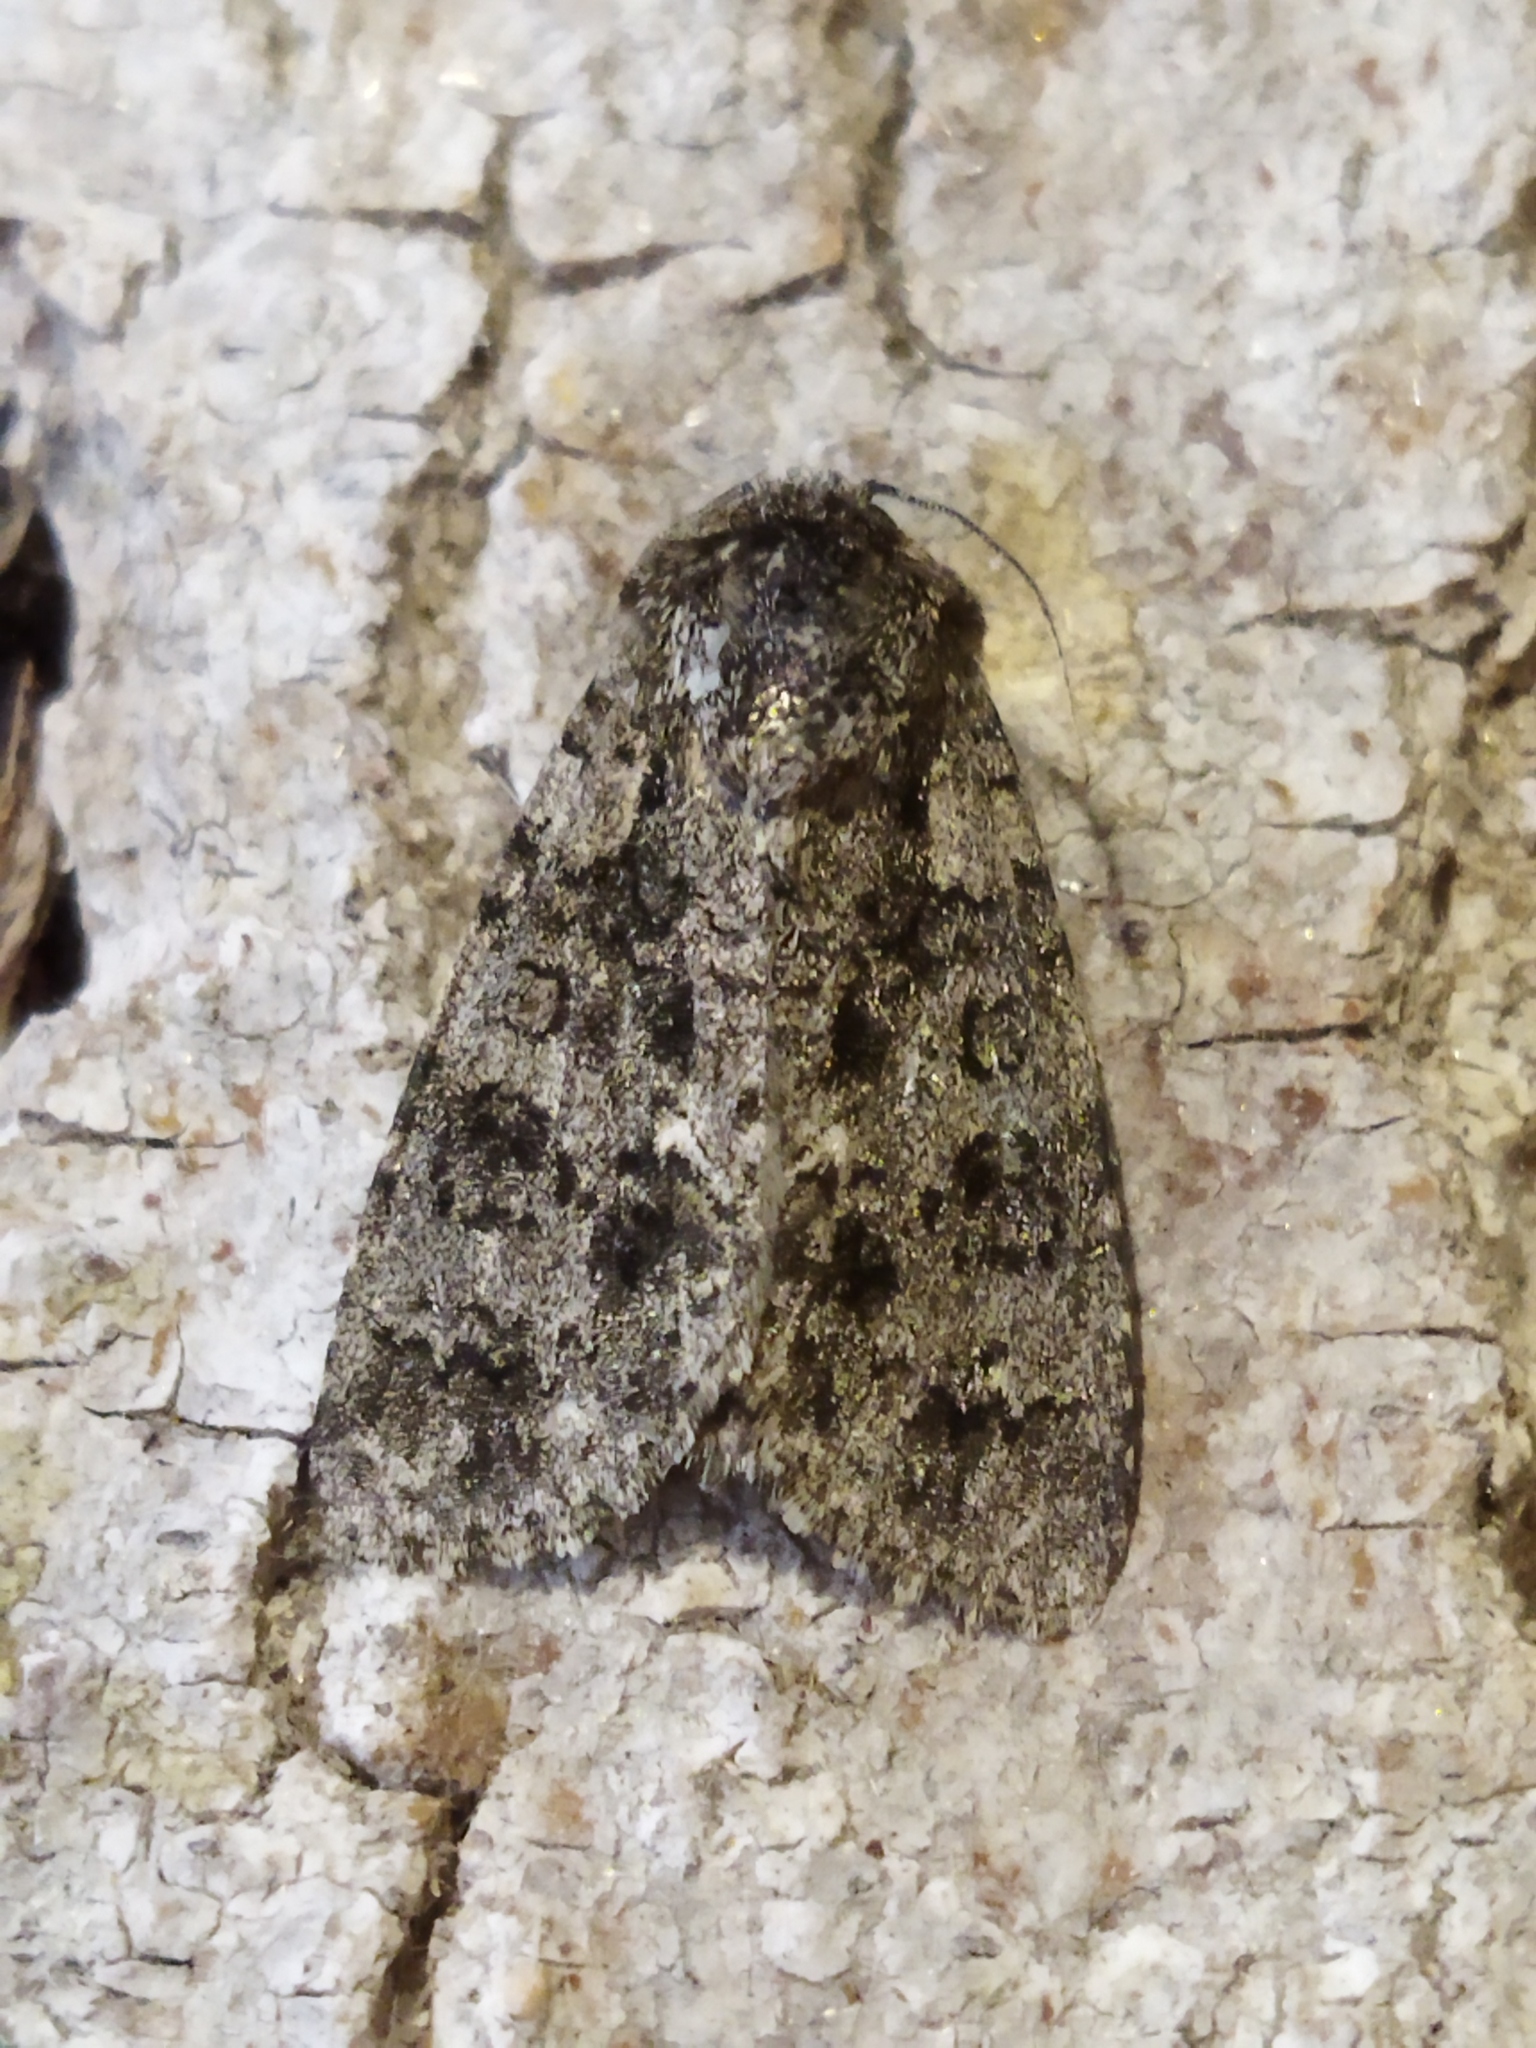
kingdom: Animalia
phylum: Arthropoda
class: Insecta
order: Lepidoptera
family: Noctuidae
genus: Acronicta
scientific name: Acronicta rumicis
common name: Knot grass
